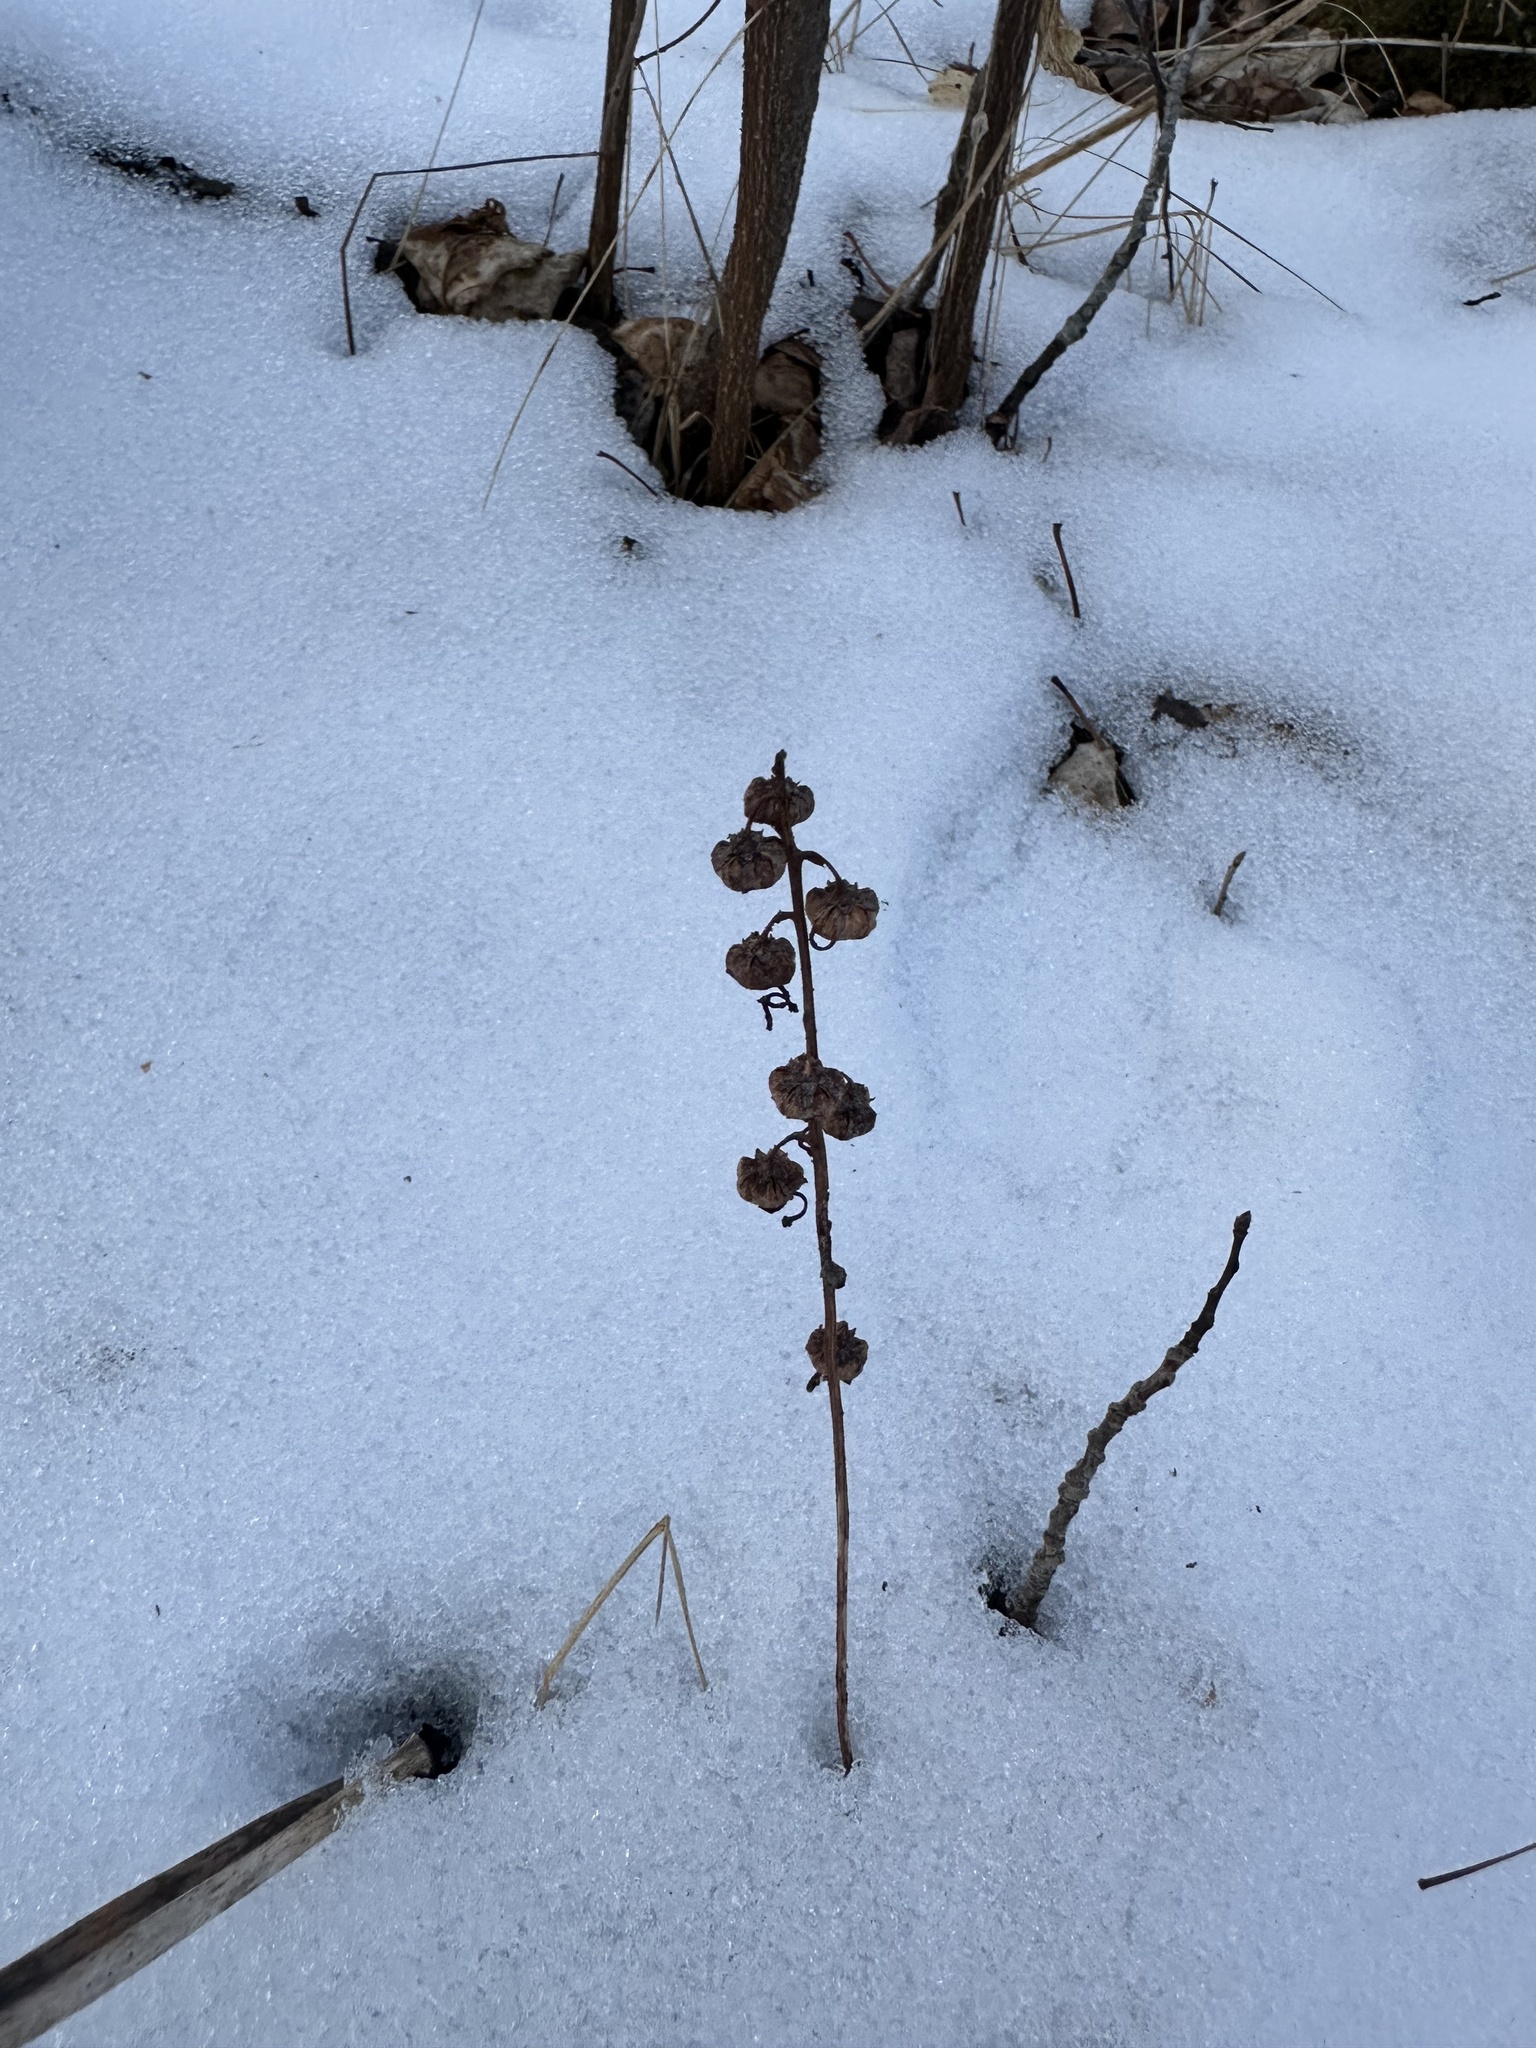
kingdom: Plantae
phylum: Tracheophyta
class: Magnoliopsida
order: Ericales
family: Ericaceae
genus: Pyrola
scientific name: Pyrola asarifolia
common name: Bog wintergreen
